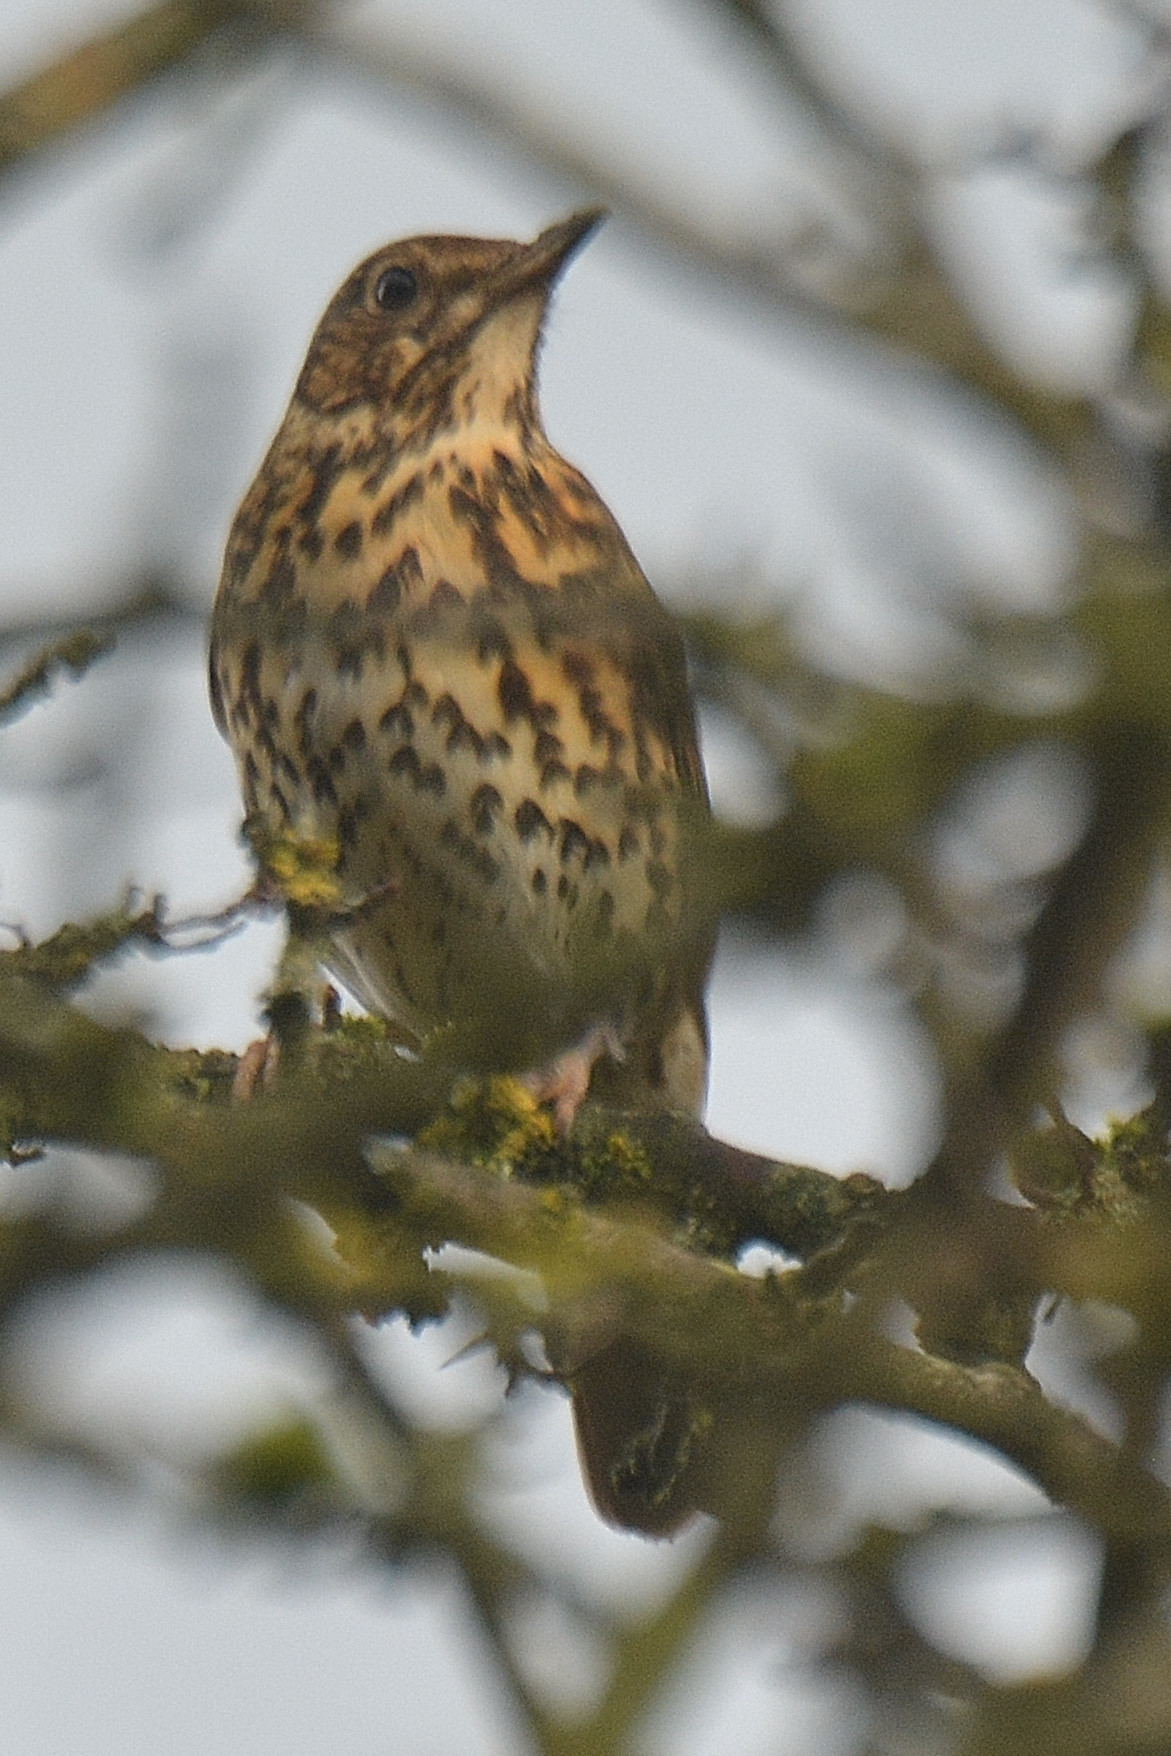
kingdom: Animalia
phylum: Chordata
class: Aves
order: Passeriformes
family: Turdidae
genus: Turdus
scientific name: Turdus philomelos
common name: Song thrush
